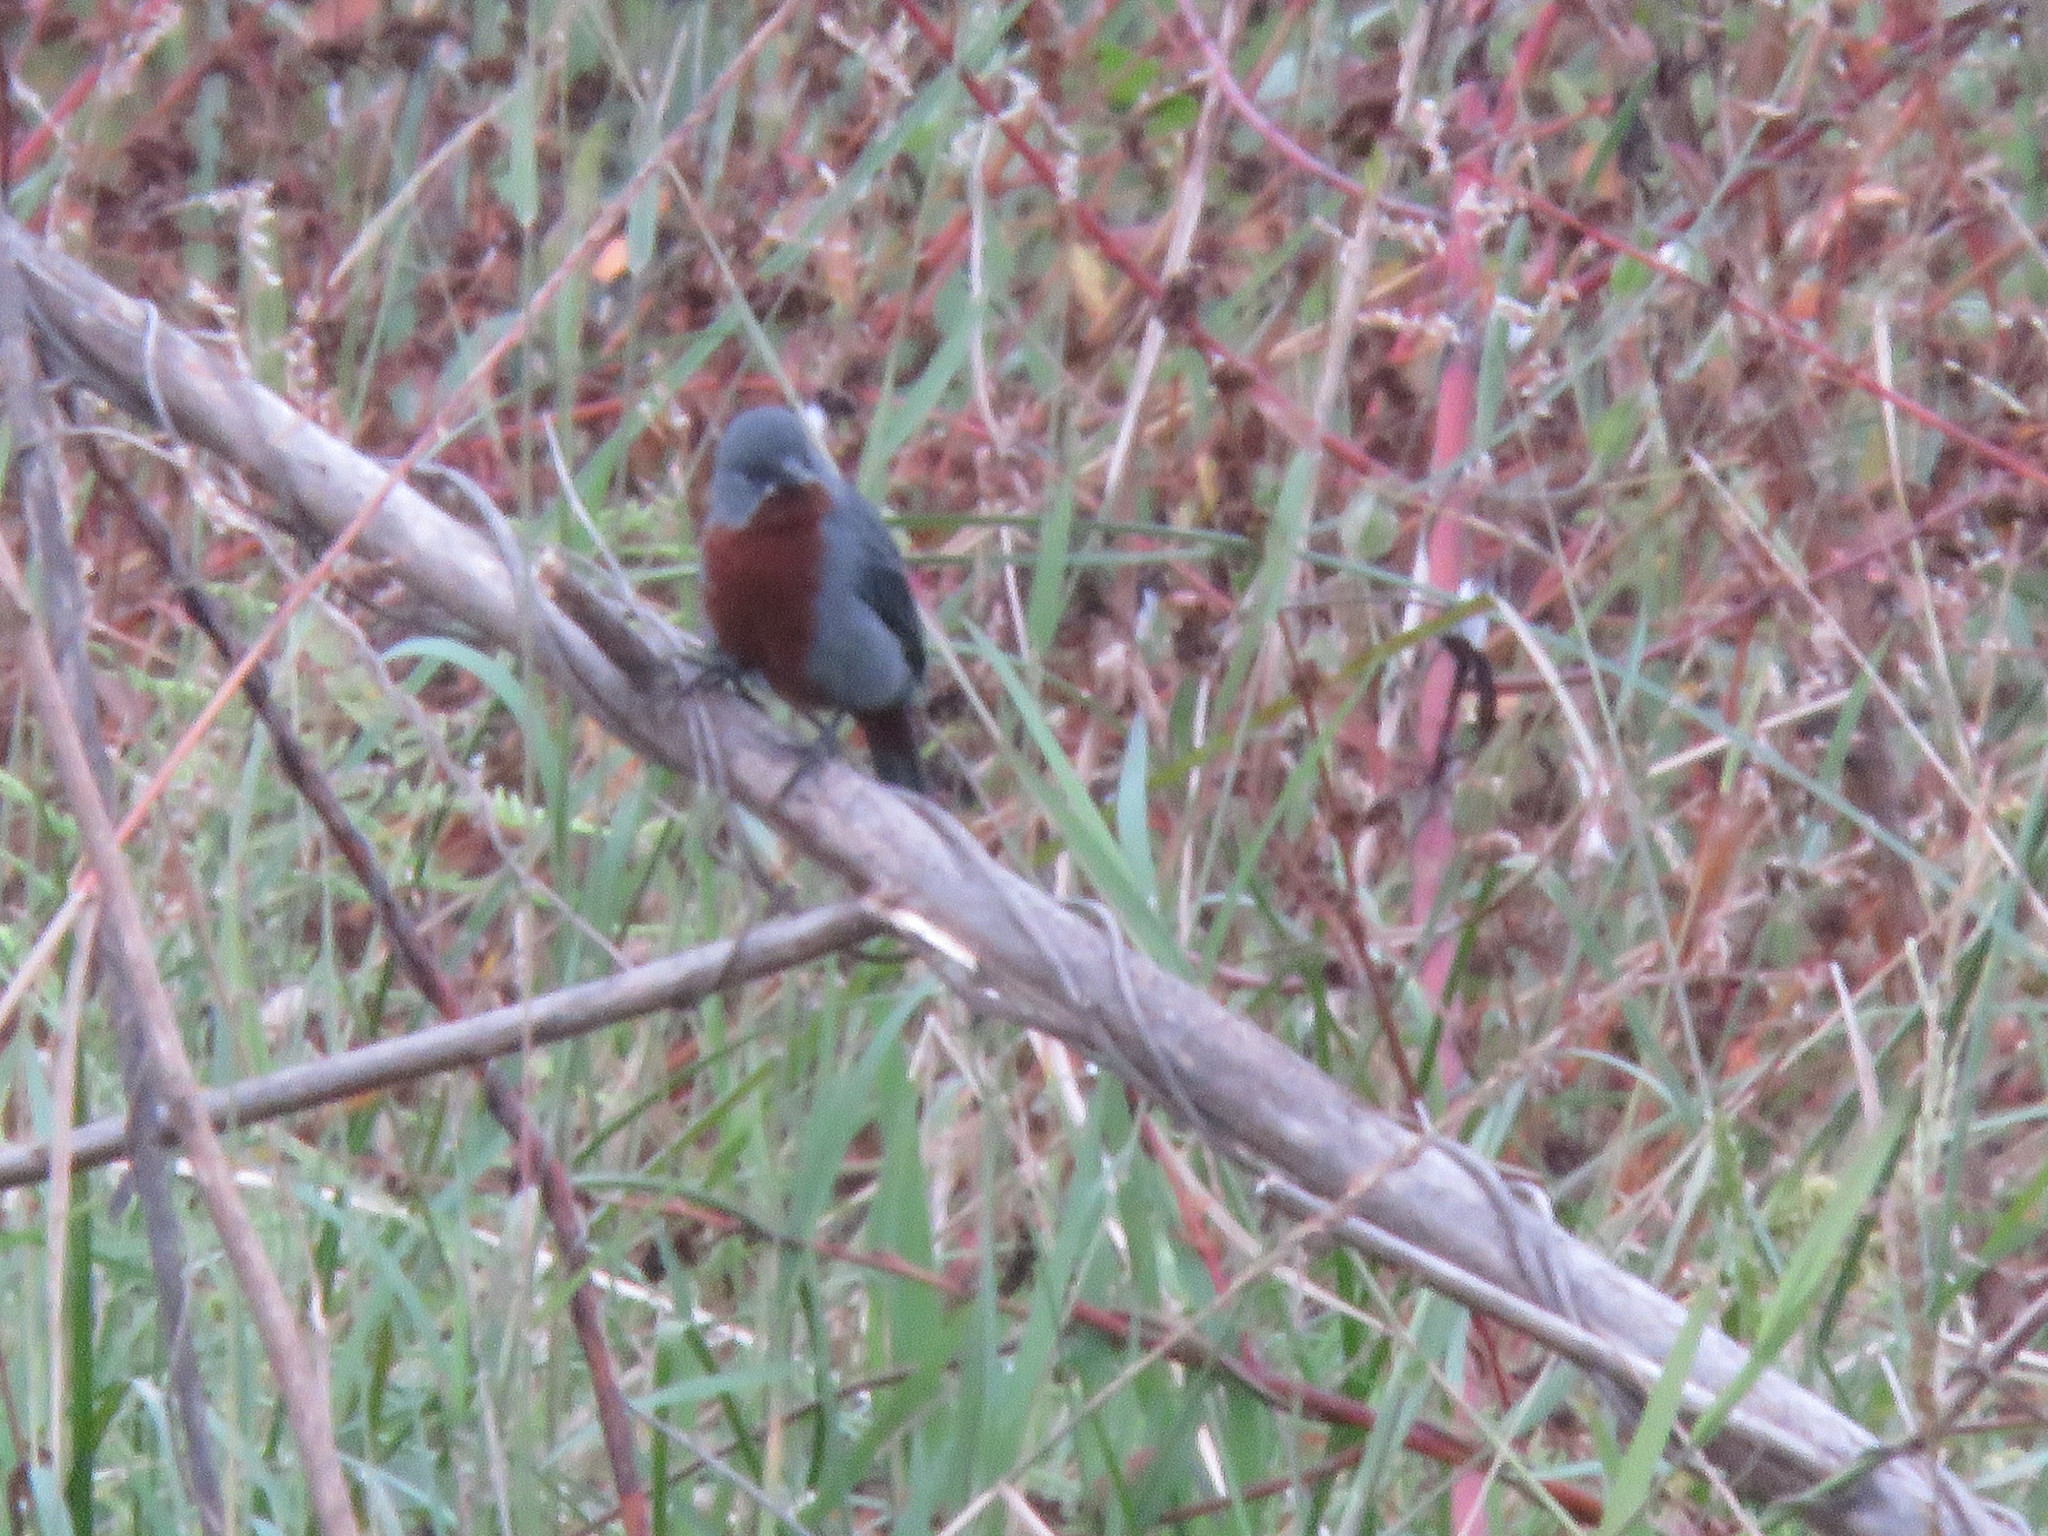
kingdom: Animalia
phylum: Chordata
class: Aves
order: Passeriformes
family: Thraupidae
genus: Sporophila
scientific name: Sporophila castaneiventris
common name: Chestnut-bellied seedeater
